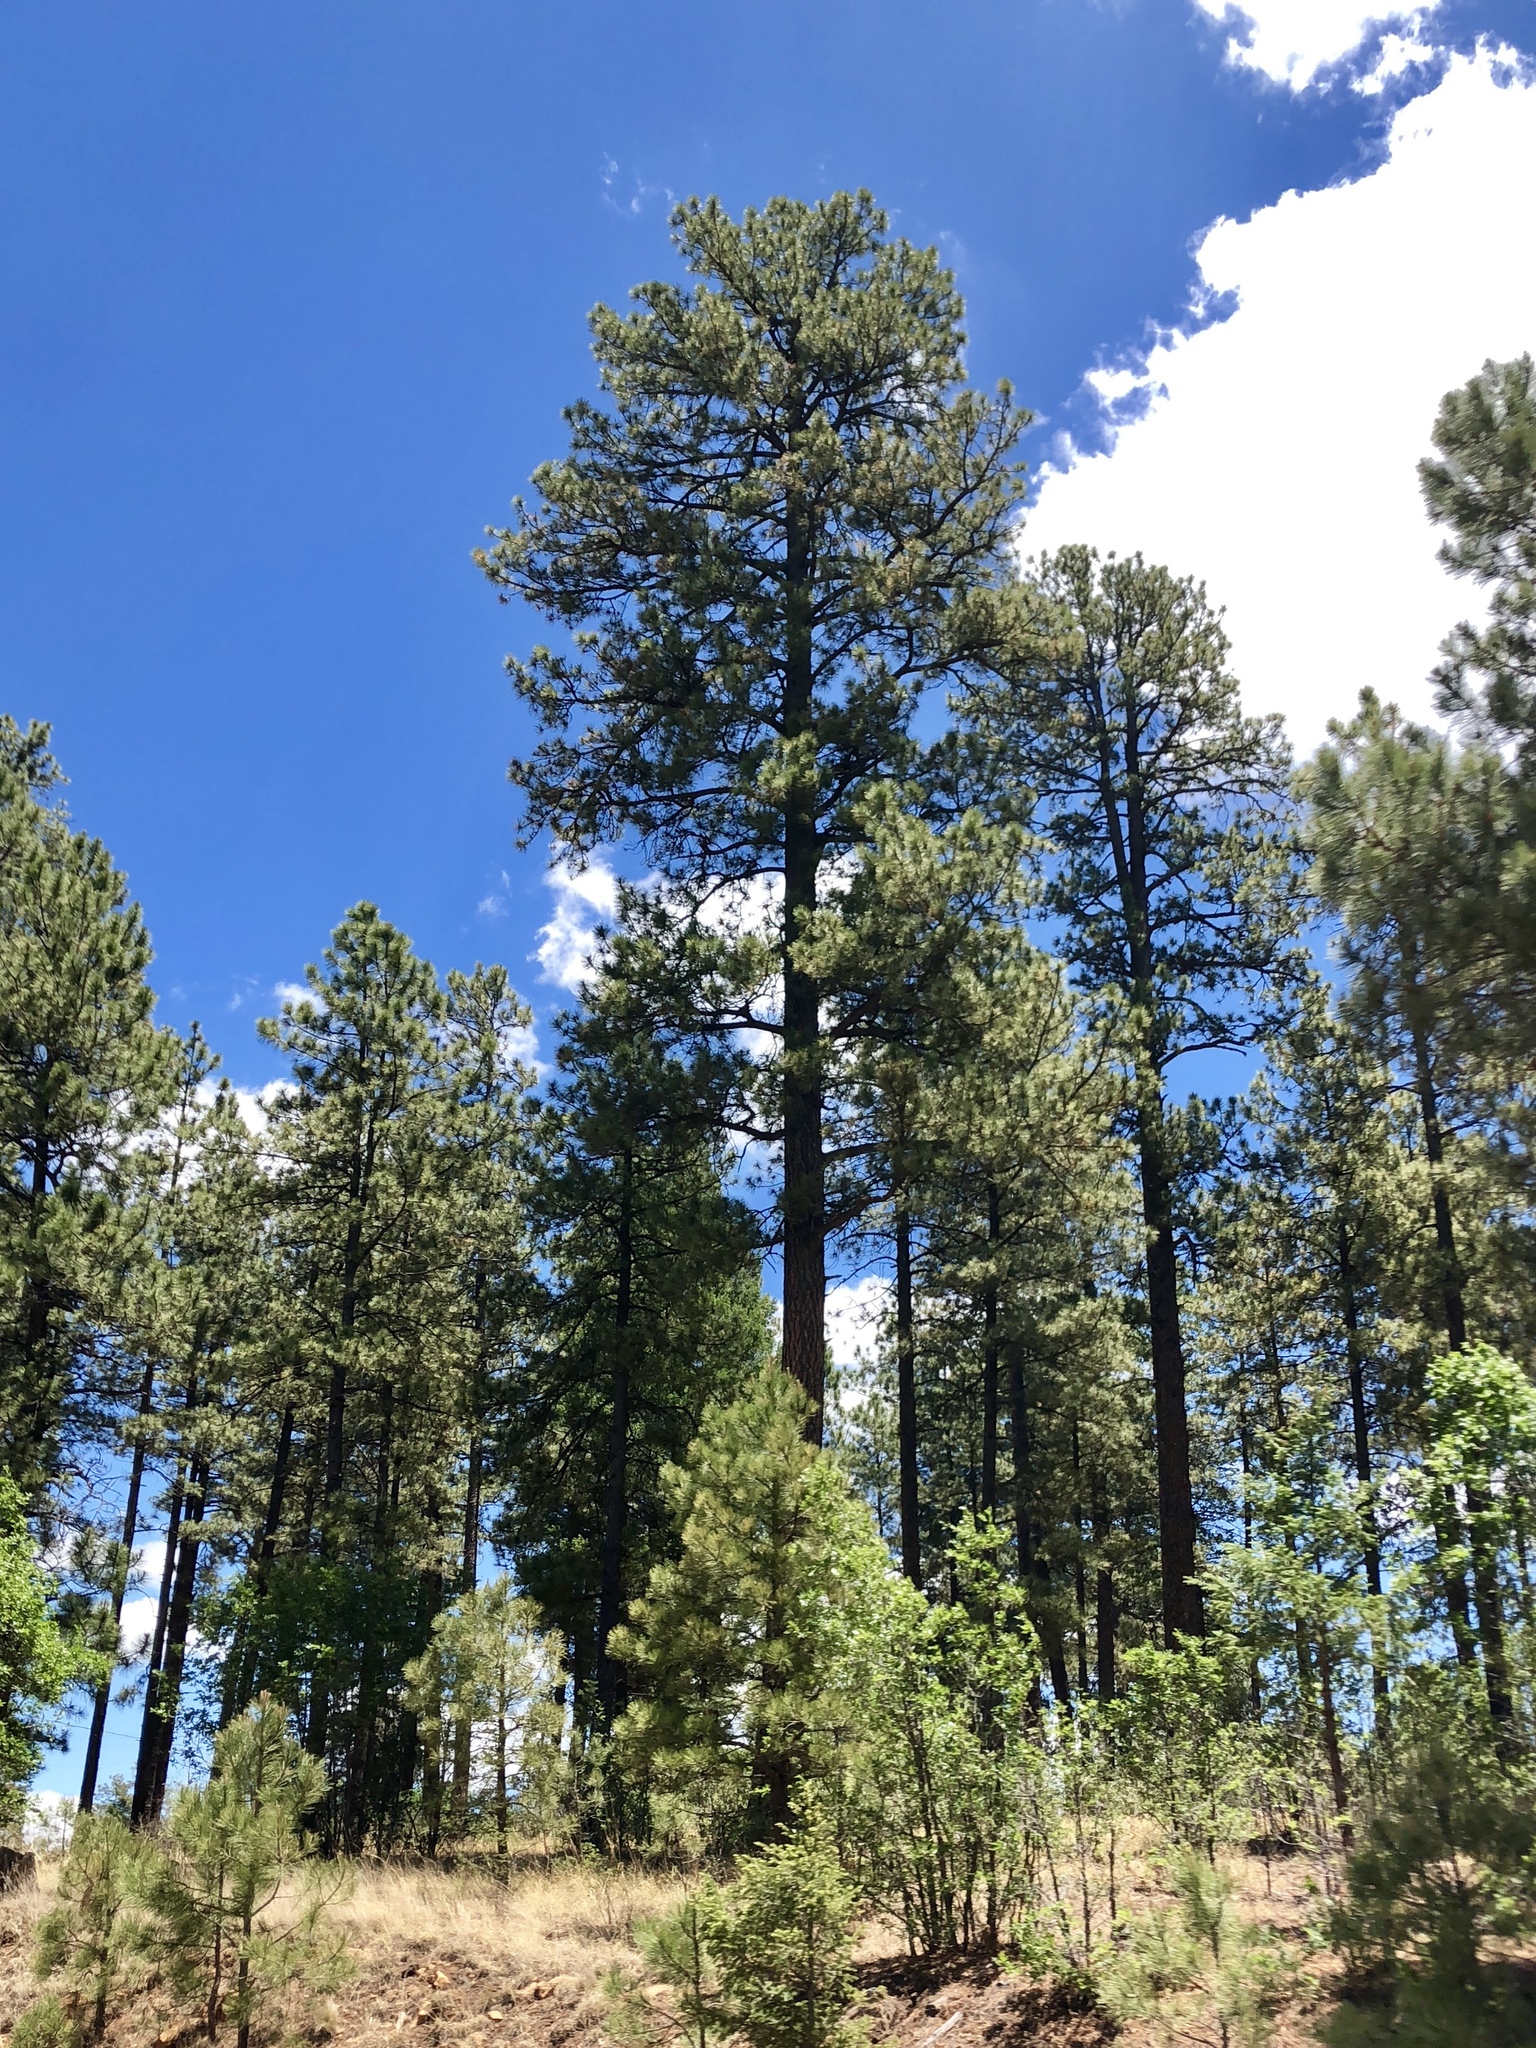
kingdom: Plantae
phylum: Tracheophyta
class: Pinopsida
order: Pinales
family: Pinaceae
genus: Pinus
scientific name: Pinus ponderosa
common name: Western yellow-pine
